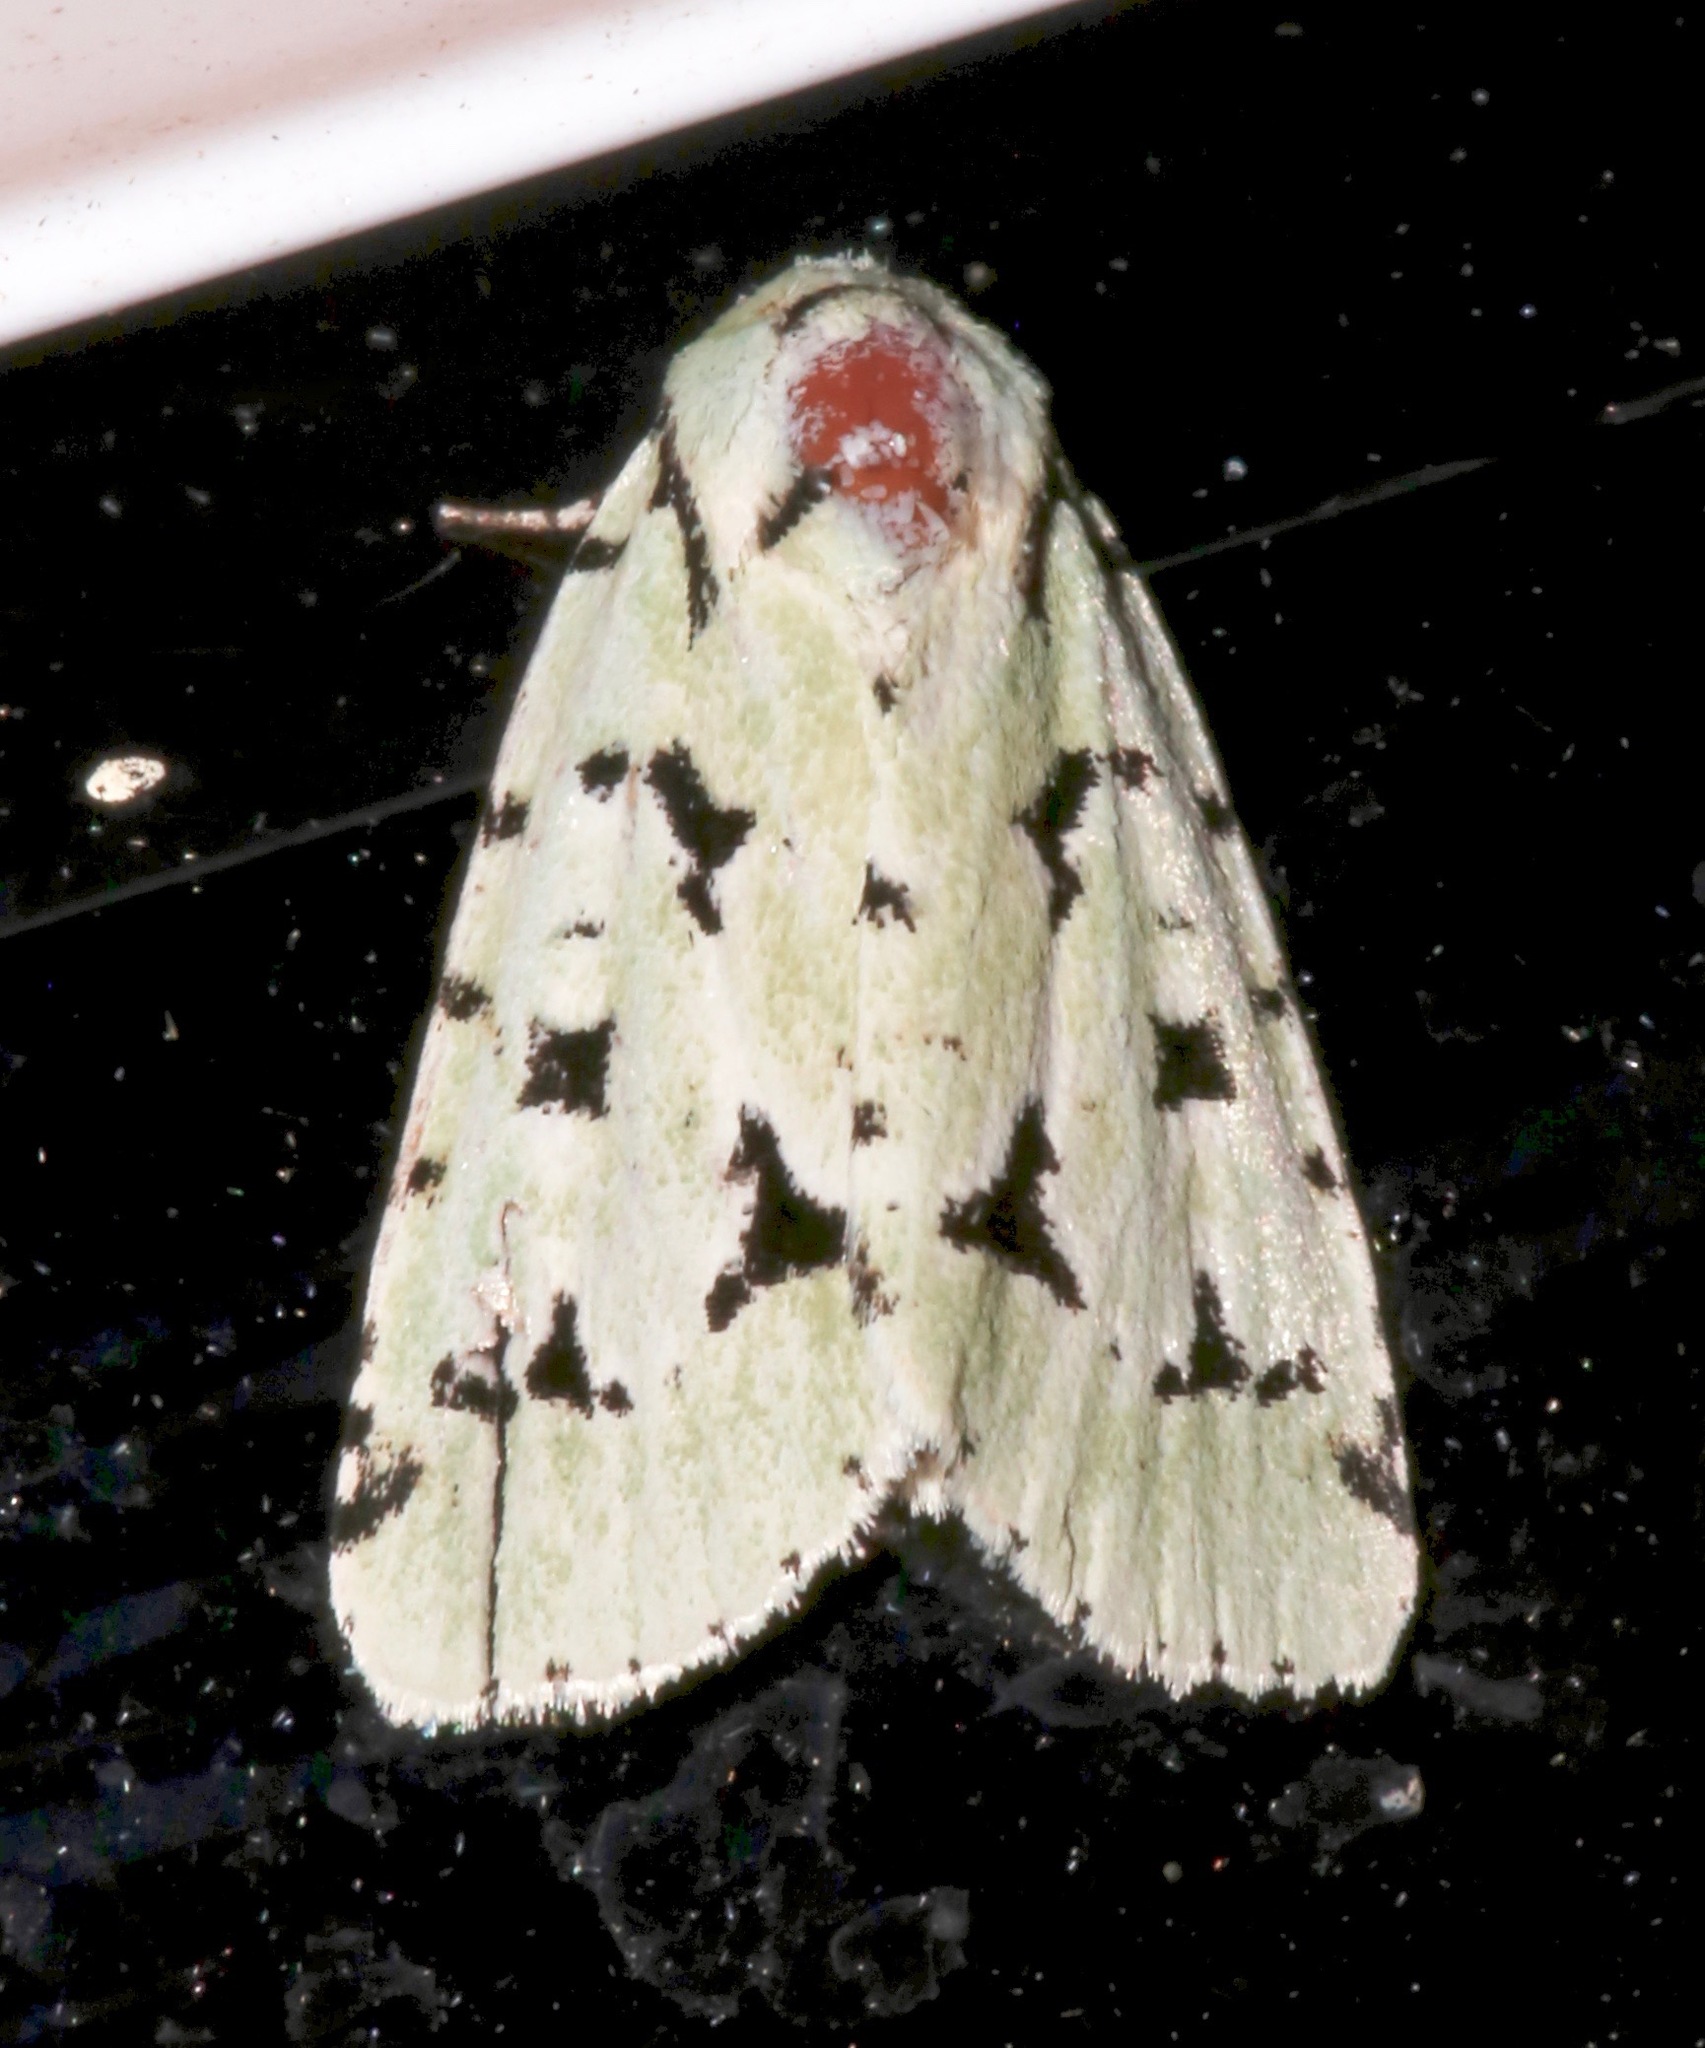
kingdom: Animalia
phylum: Arthropoda
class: Insecta
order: Lepidoptera
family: Noctuidae
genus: Acronicta
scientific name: Acronicta fallax
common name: Green marvel
